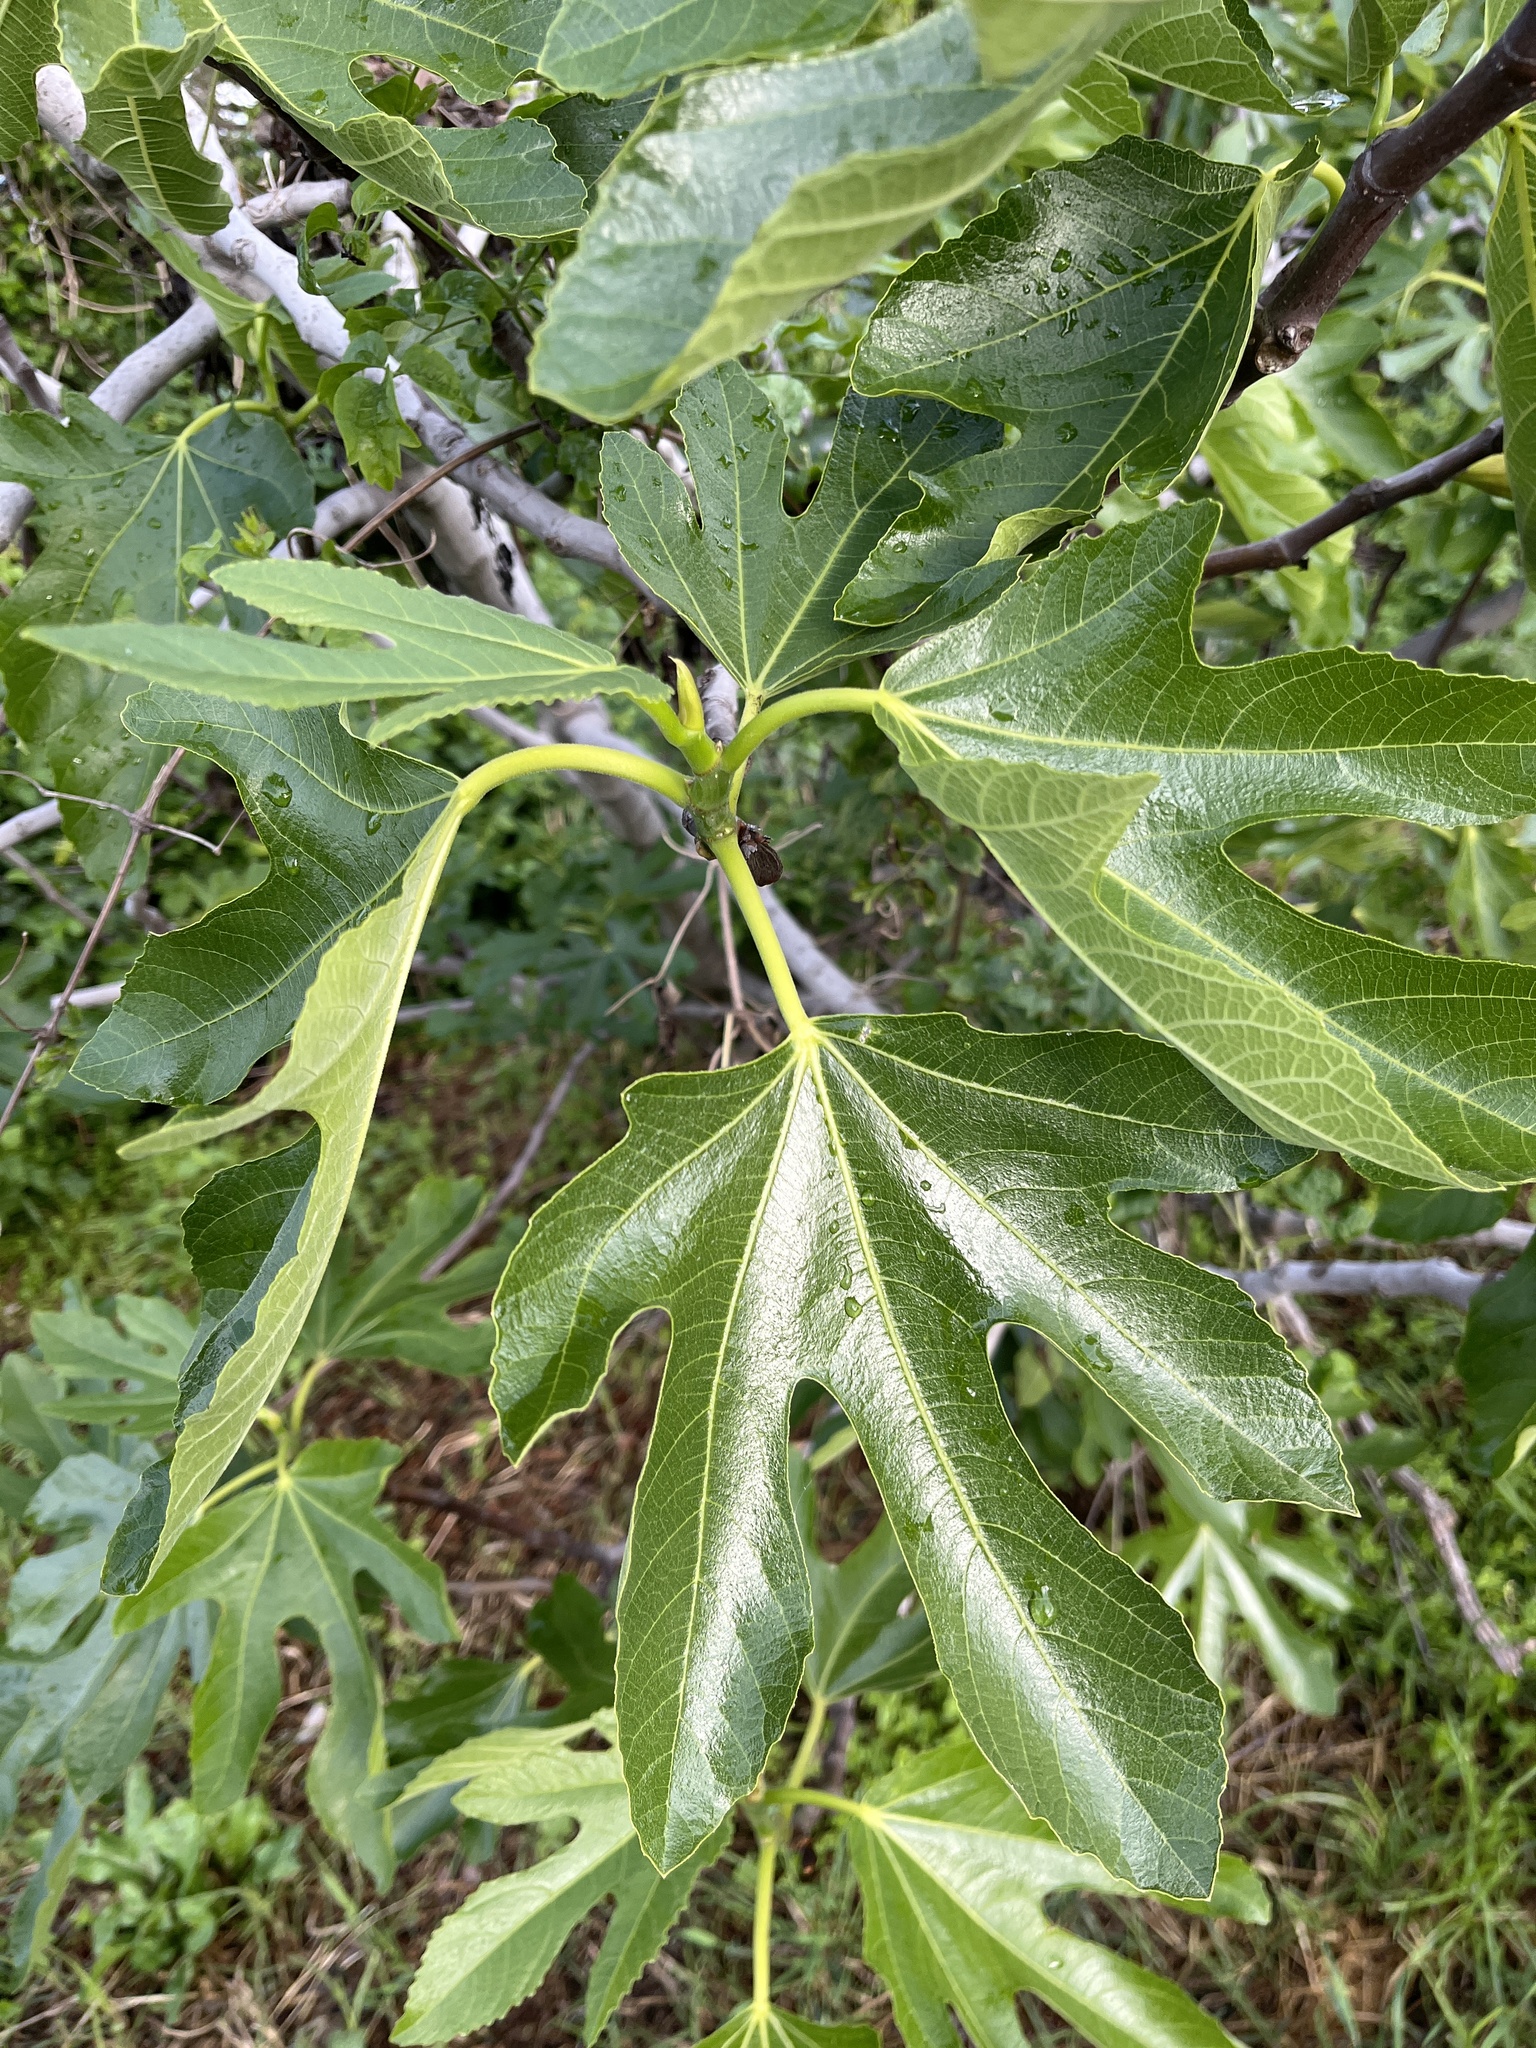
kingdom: Plantae
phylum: Tracheophyta
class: Magnoliopsida
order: Rosales
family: Moraceae
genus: Ficus
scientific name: Ficus carica
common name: Fig
